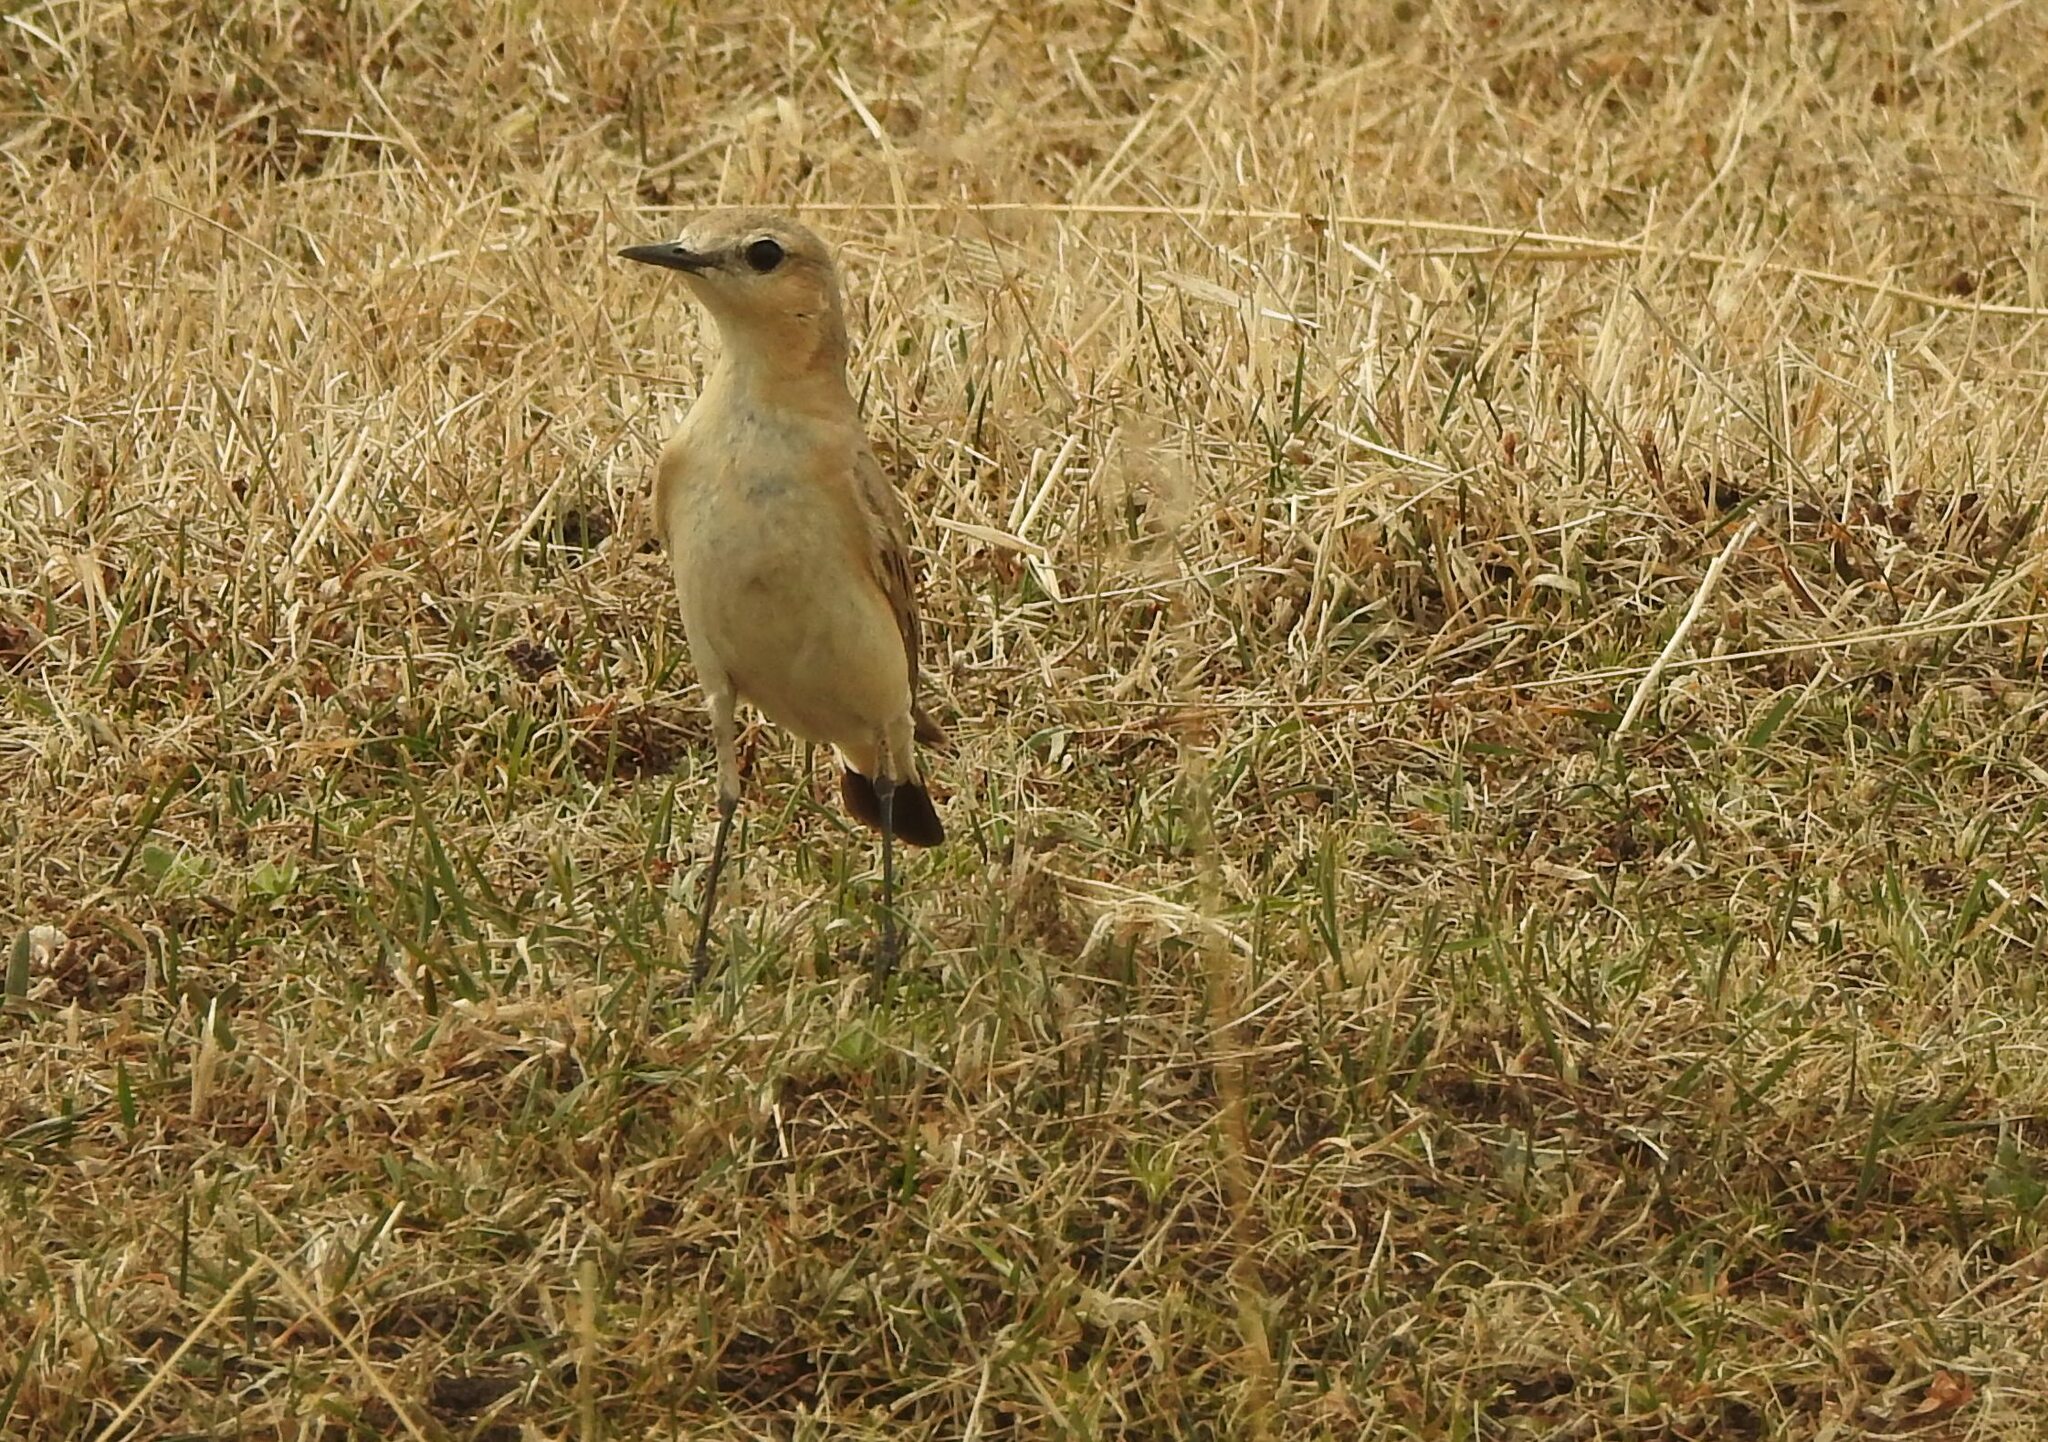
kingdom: Animalia
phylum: Chordata
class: Aves
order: Passeriformes
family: Muscicapidae
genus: Oenanthe
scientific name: Oenanthe isabellina
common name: Isabelline wheatear
